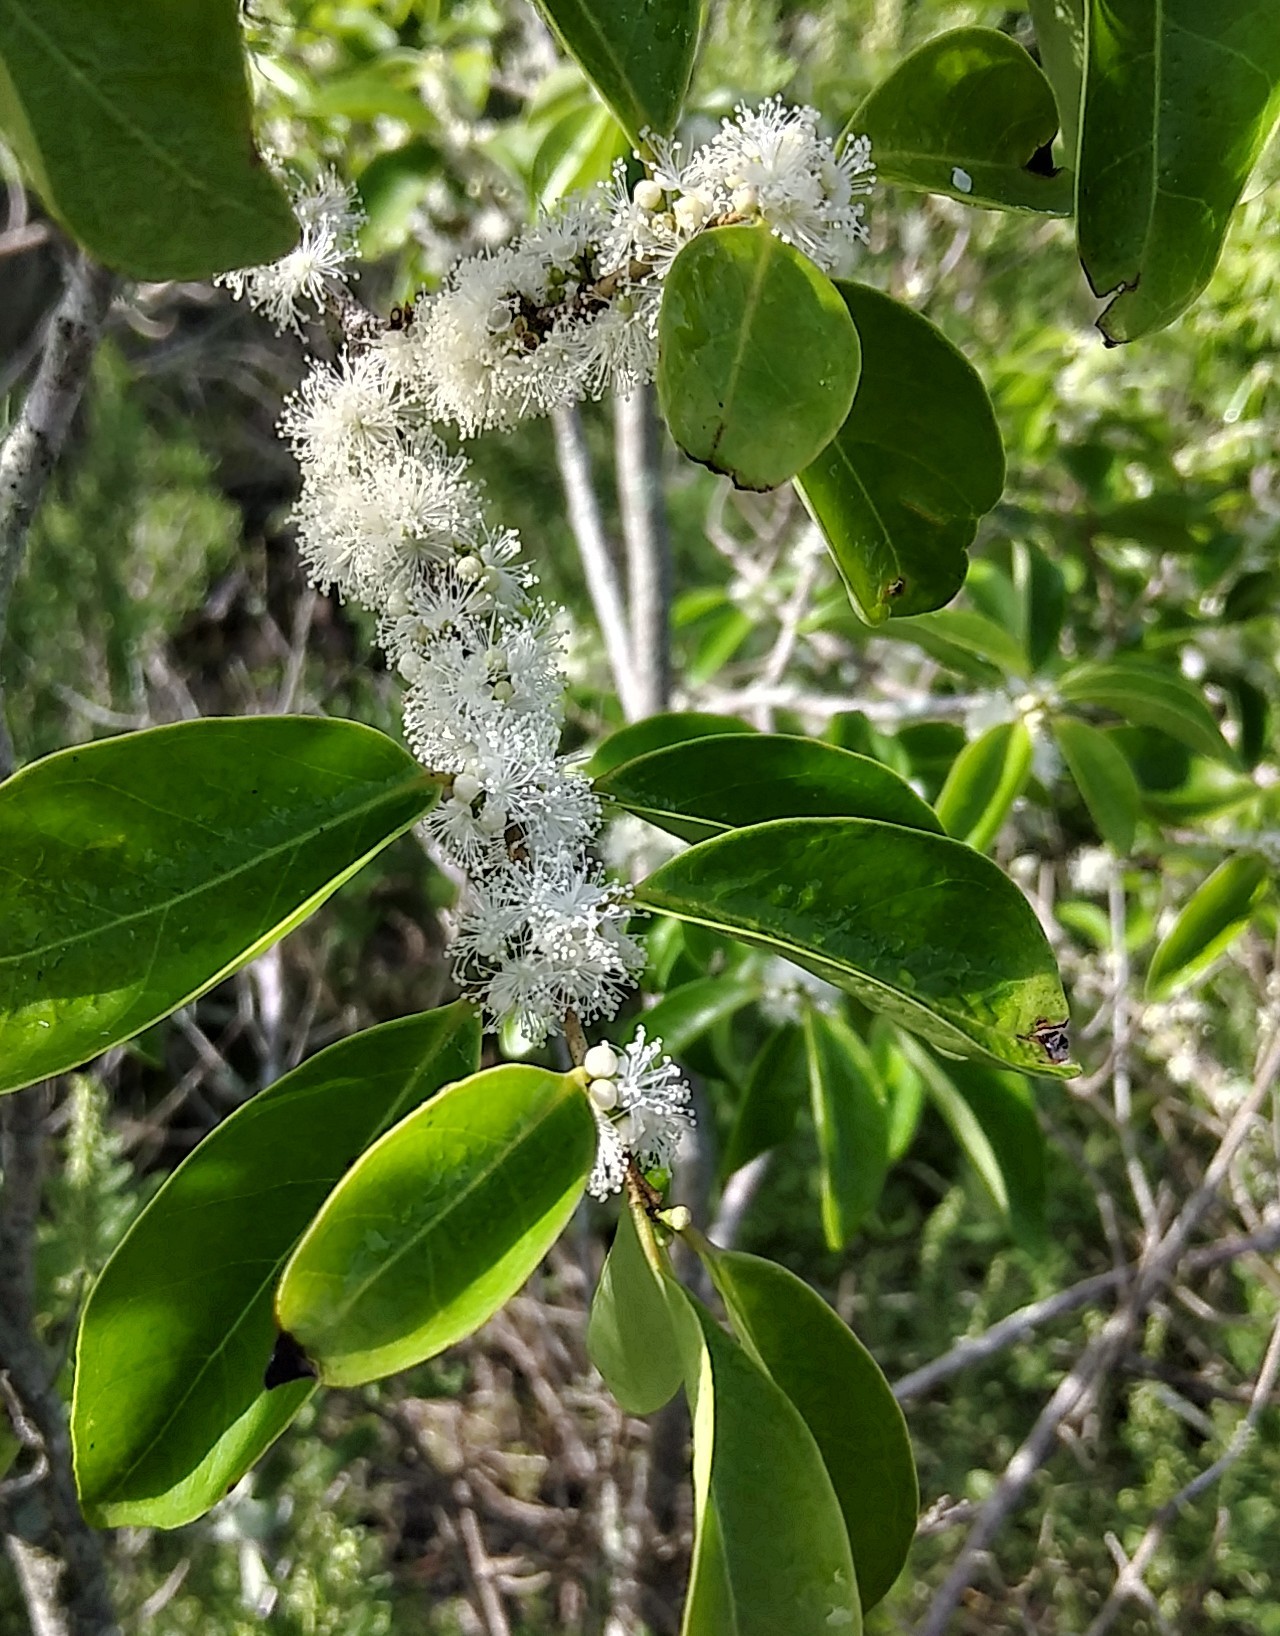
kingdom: Plantae
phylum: Tracheophyta
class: Magnoliopsida
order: Myrtales
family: Myrtaceae
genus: Eugenia
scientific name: Eugenia axillaris
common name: Choaky berry
